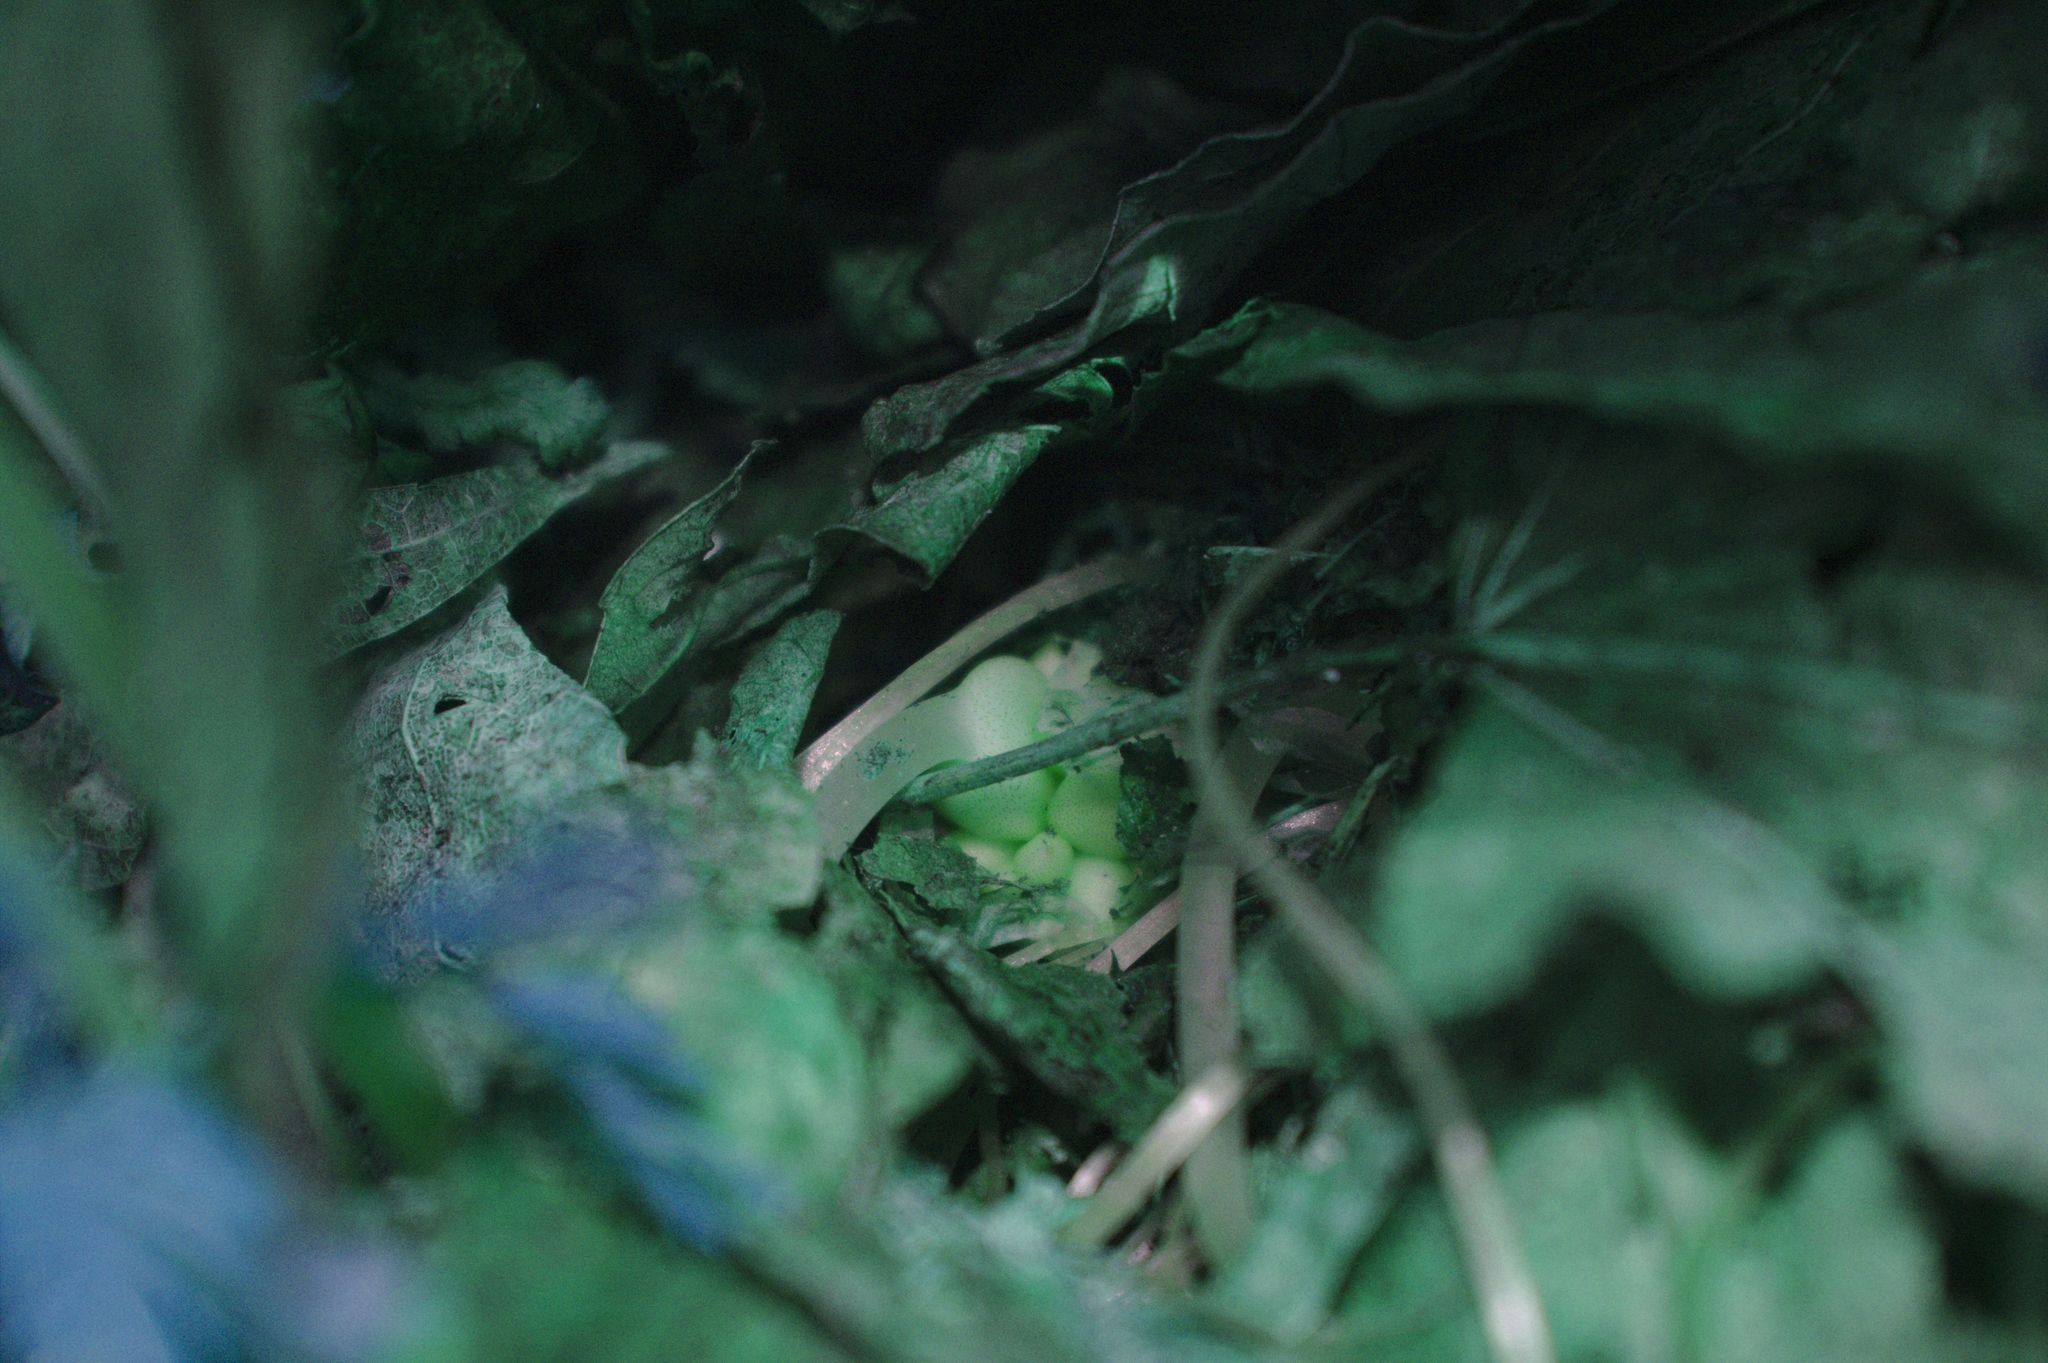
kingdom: Plantae
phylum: Tracheophyta
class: Magnoliopsida
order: Ranunculales
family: Papaveraceae
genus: Dicentra
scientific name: Dicentra cucullaria
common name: Dutchman's breeches
